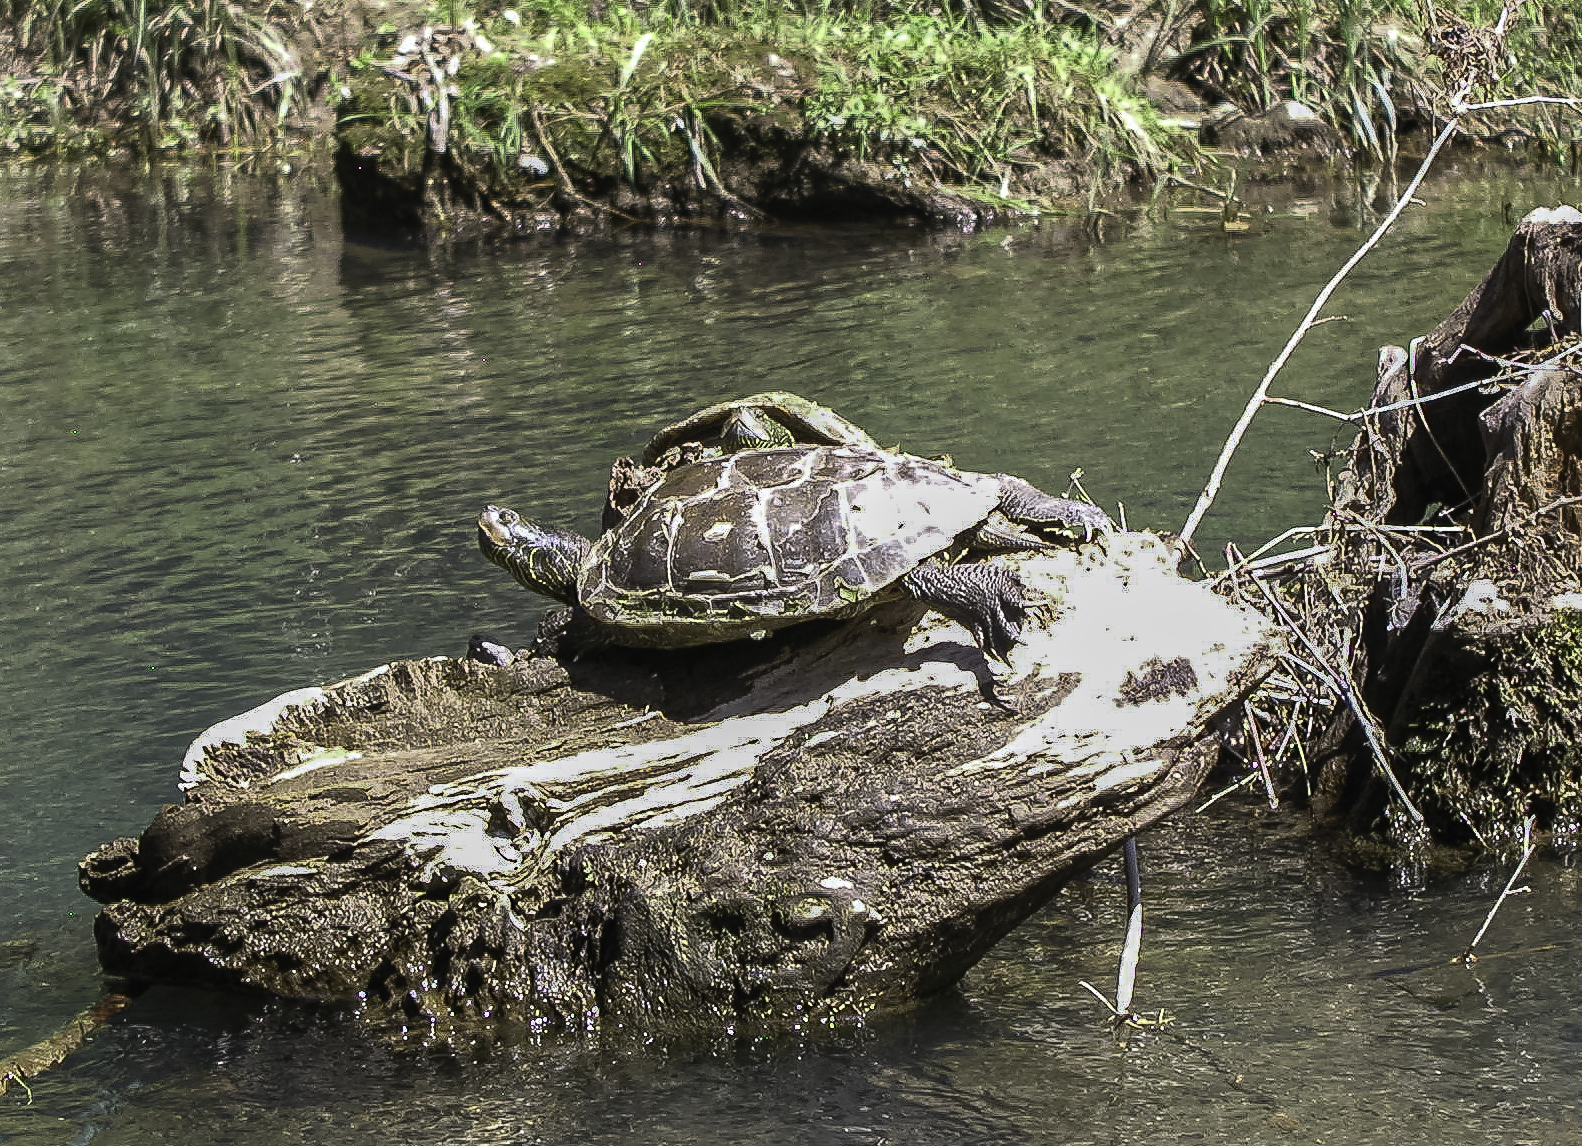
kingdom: Animalia
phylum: Chordata
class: Testudines
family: Emydidae
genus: Graptemys
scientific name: Graptemys geographica
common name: Common map turtle
